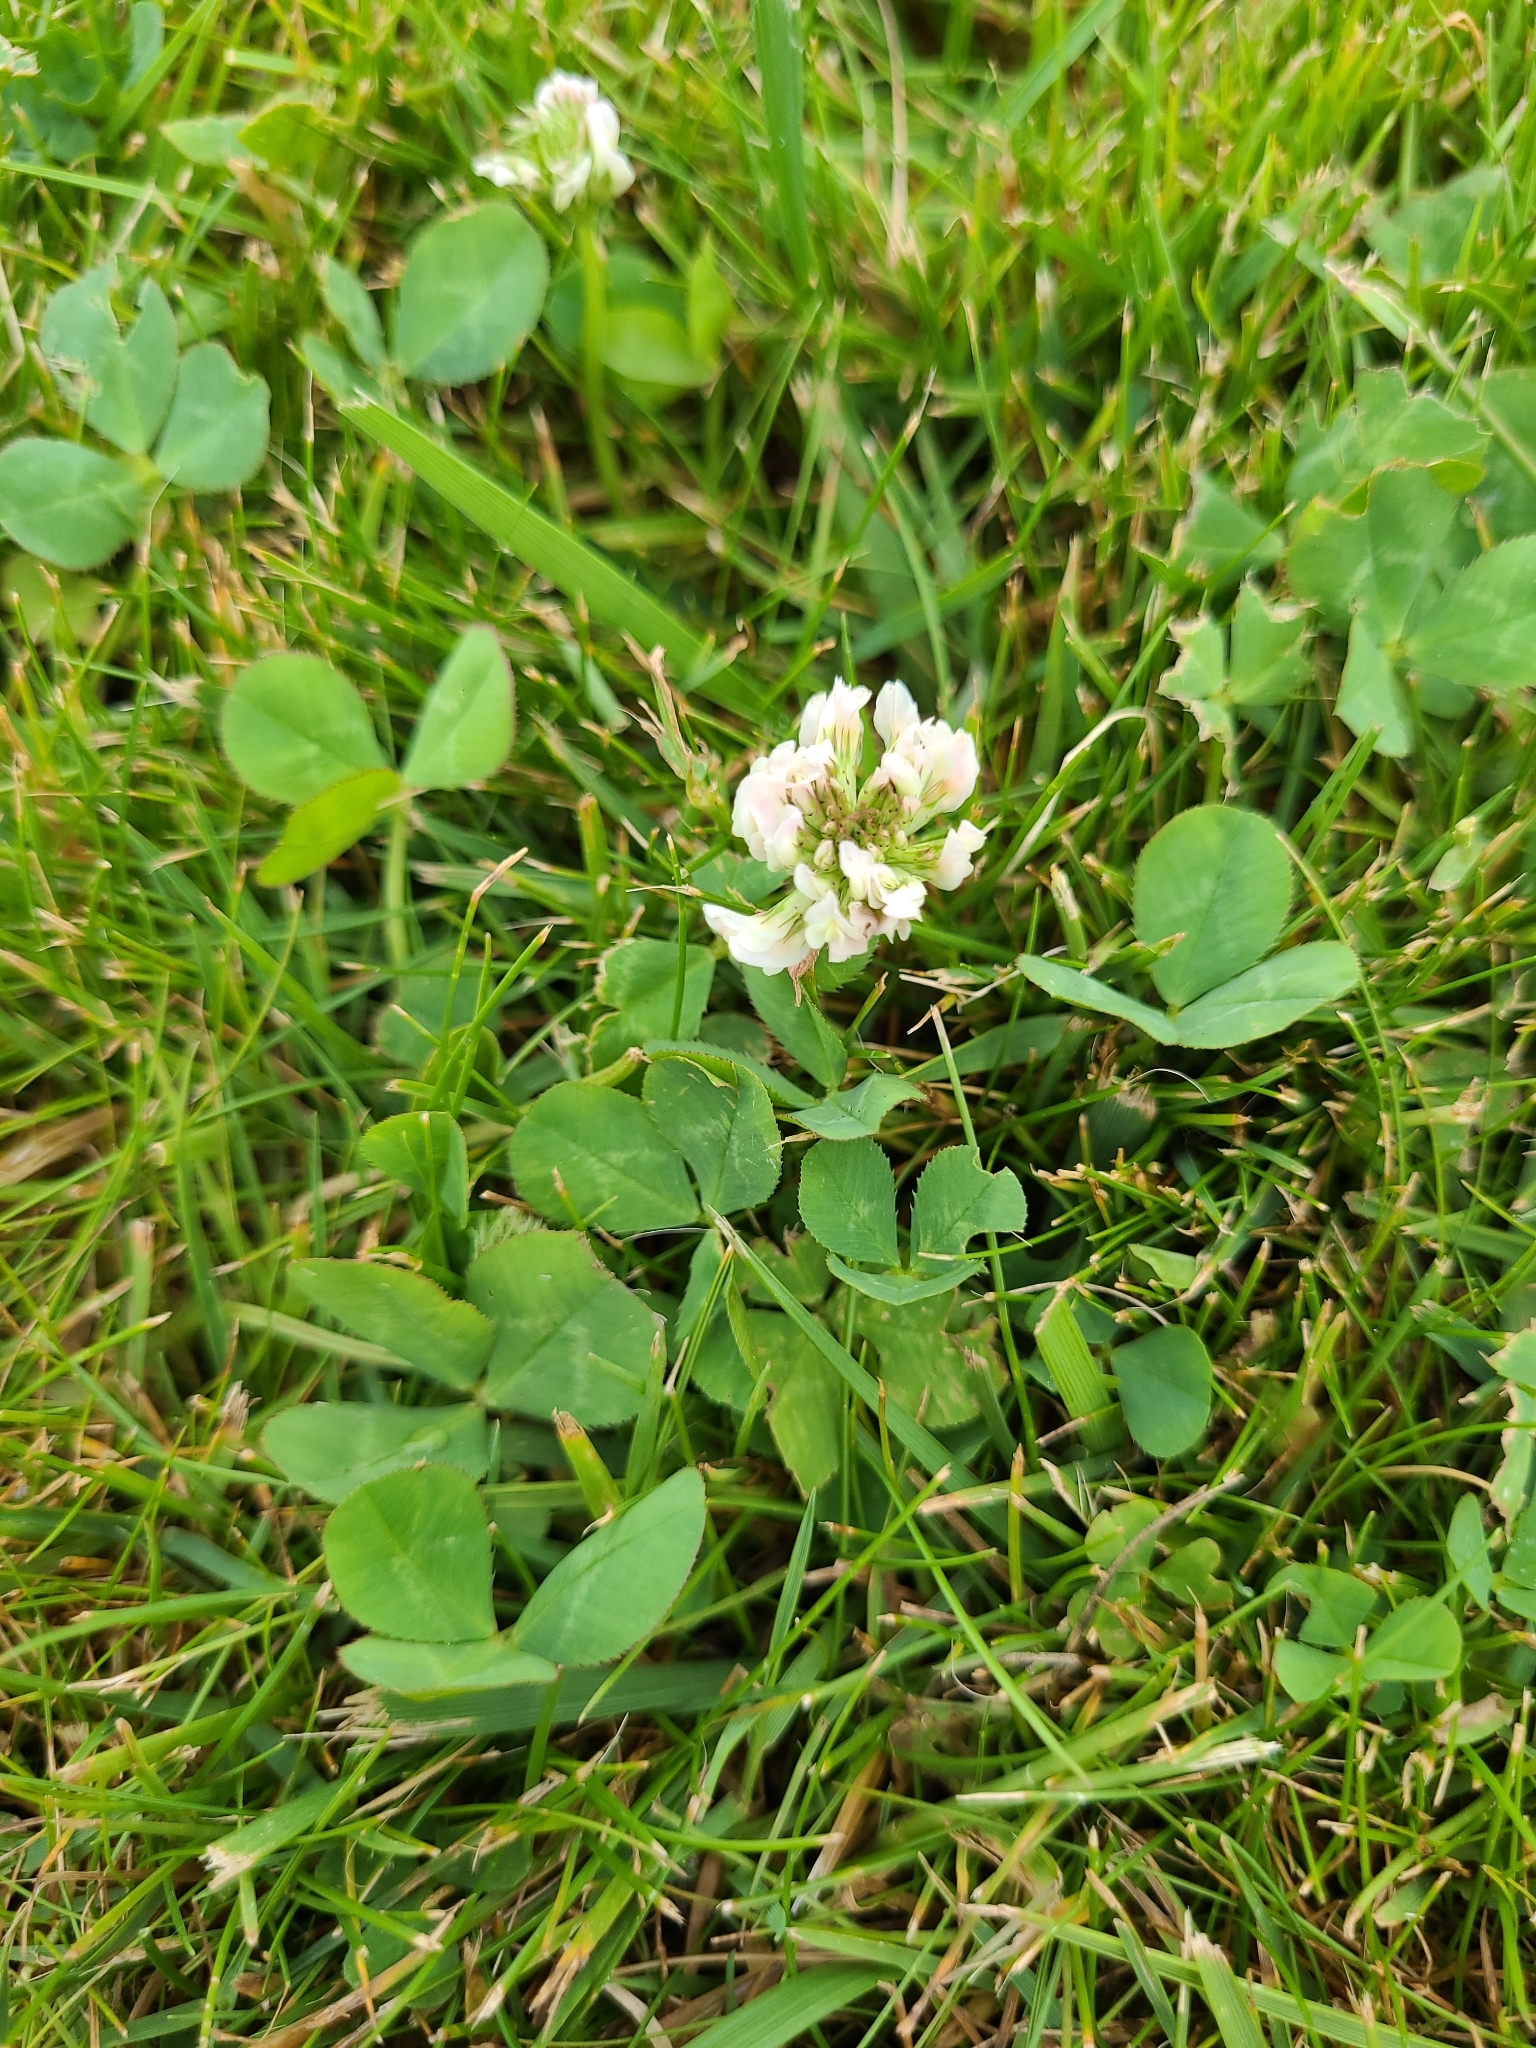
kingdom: Plantae
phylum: Tracheophyta
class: Magnoliopsida
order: Fabales
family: Fabaceae
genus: Trifolium
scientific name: Trifolium repens
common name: White clover
